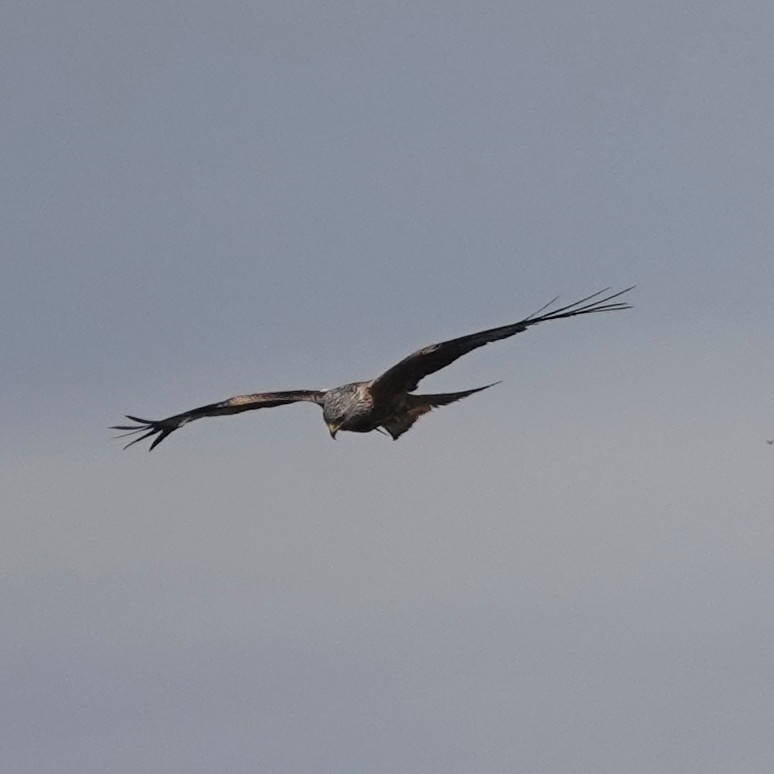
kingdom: Animalia
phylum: Chordata
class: Aves
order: Accipitriformes
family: Accipitridae
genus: Milvus
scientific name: Milvus milvus
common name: Red kite
